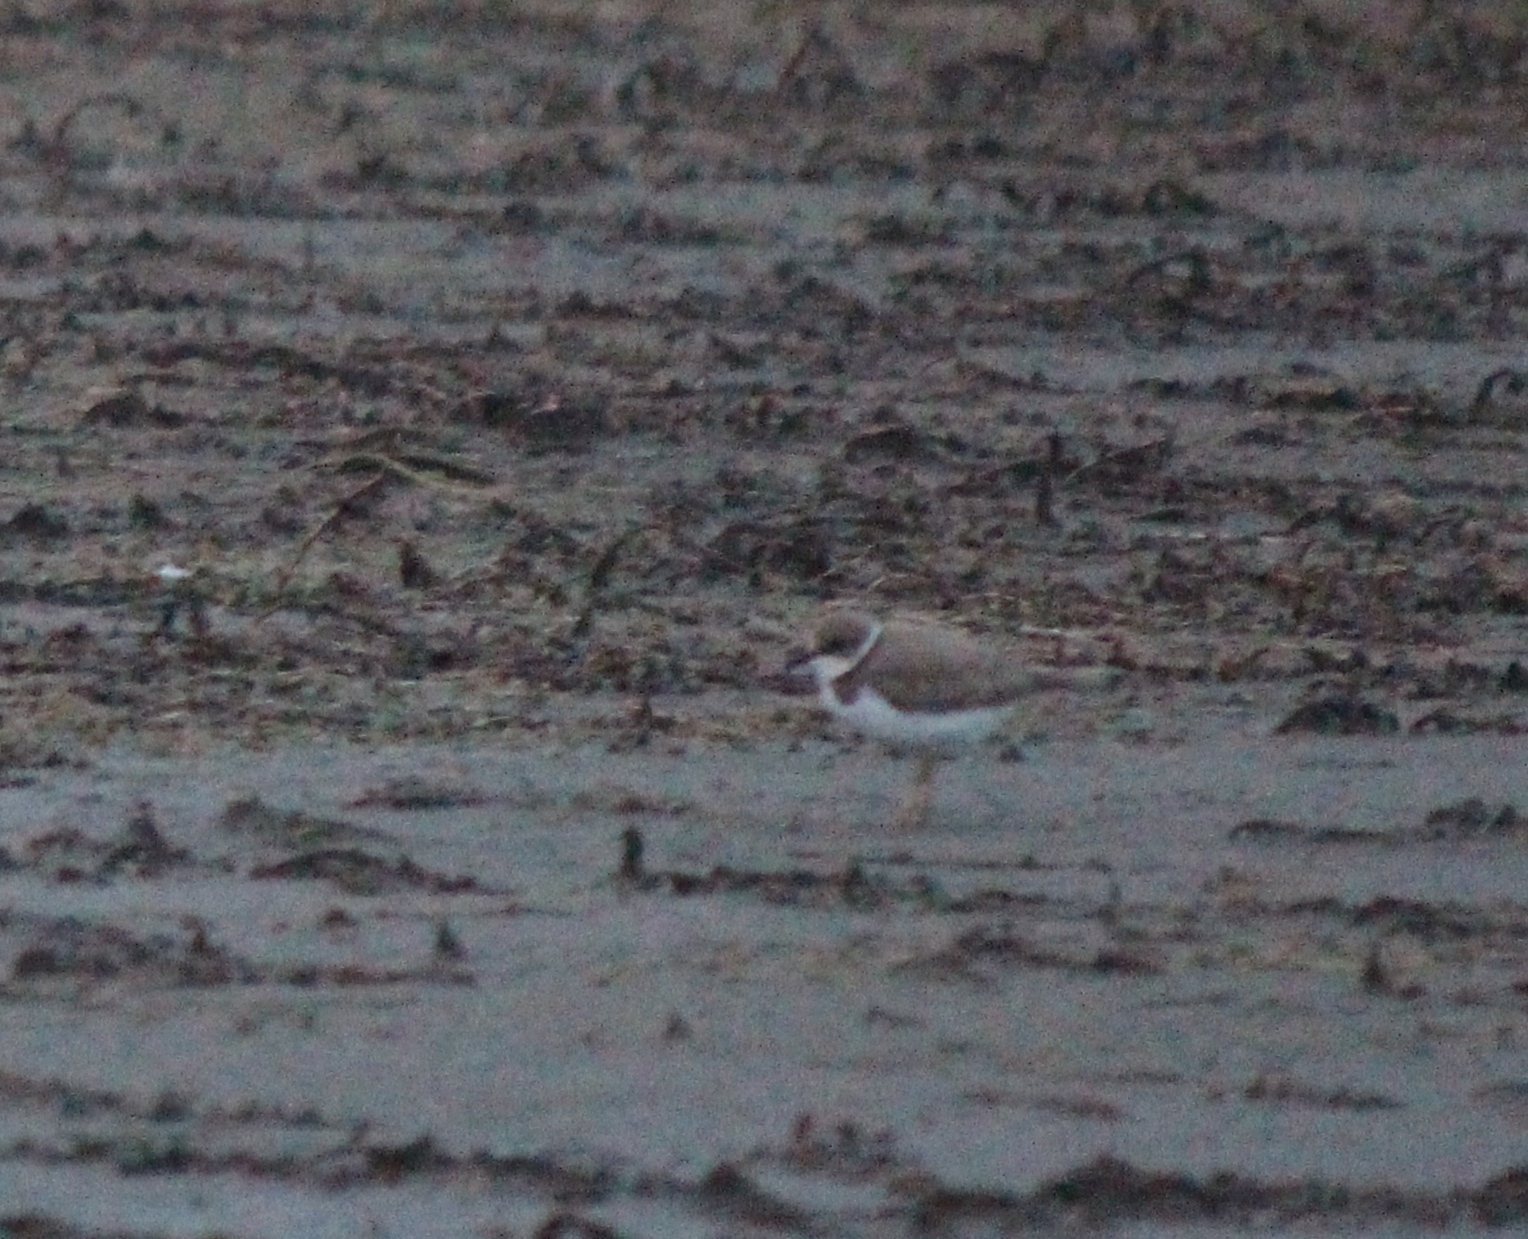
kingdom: Animalia
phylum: Chordata
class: Aves
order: Charadriiformes
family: Charadriidae
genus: Charadrius
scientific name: Charadrius dubius
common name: Little ringed plover
